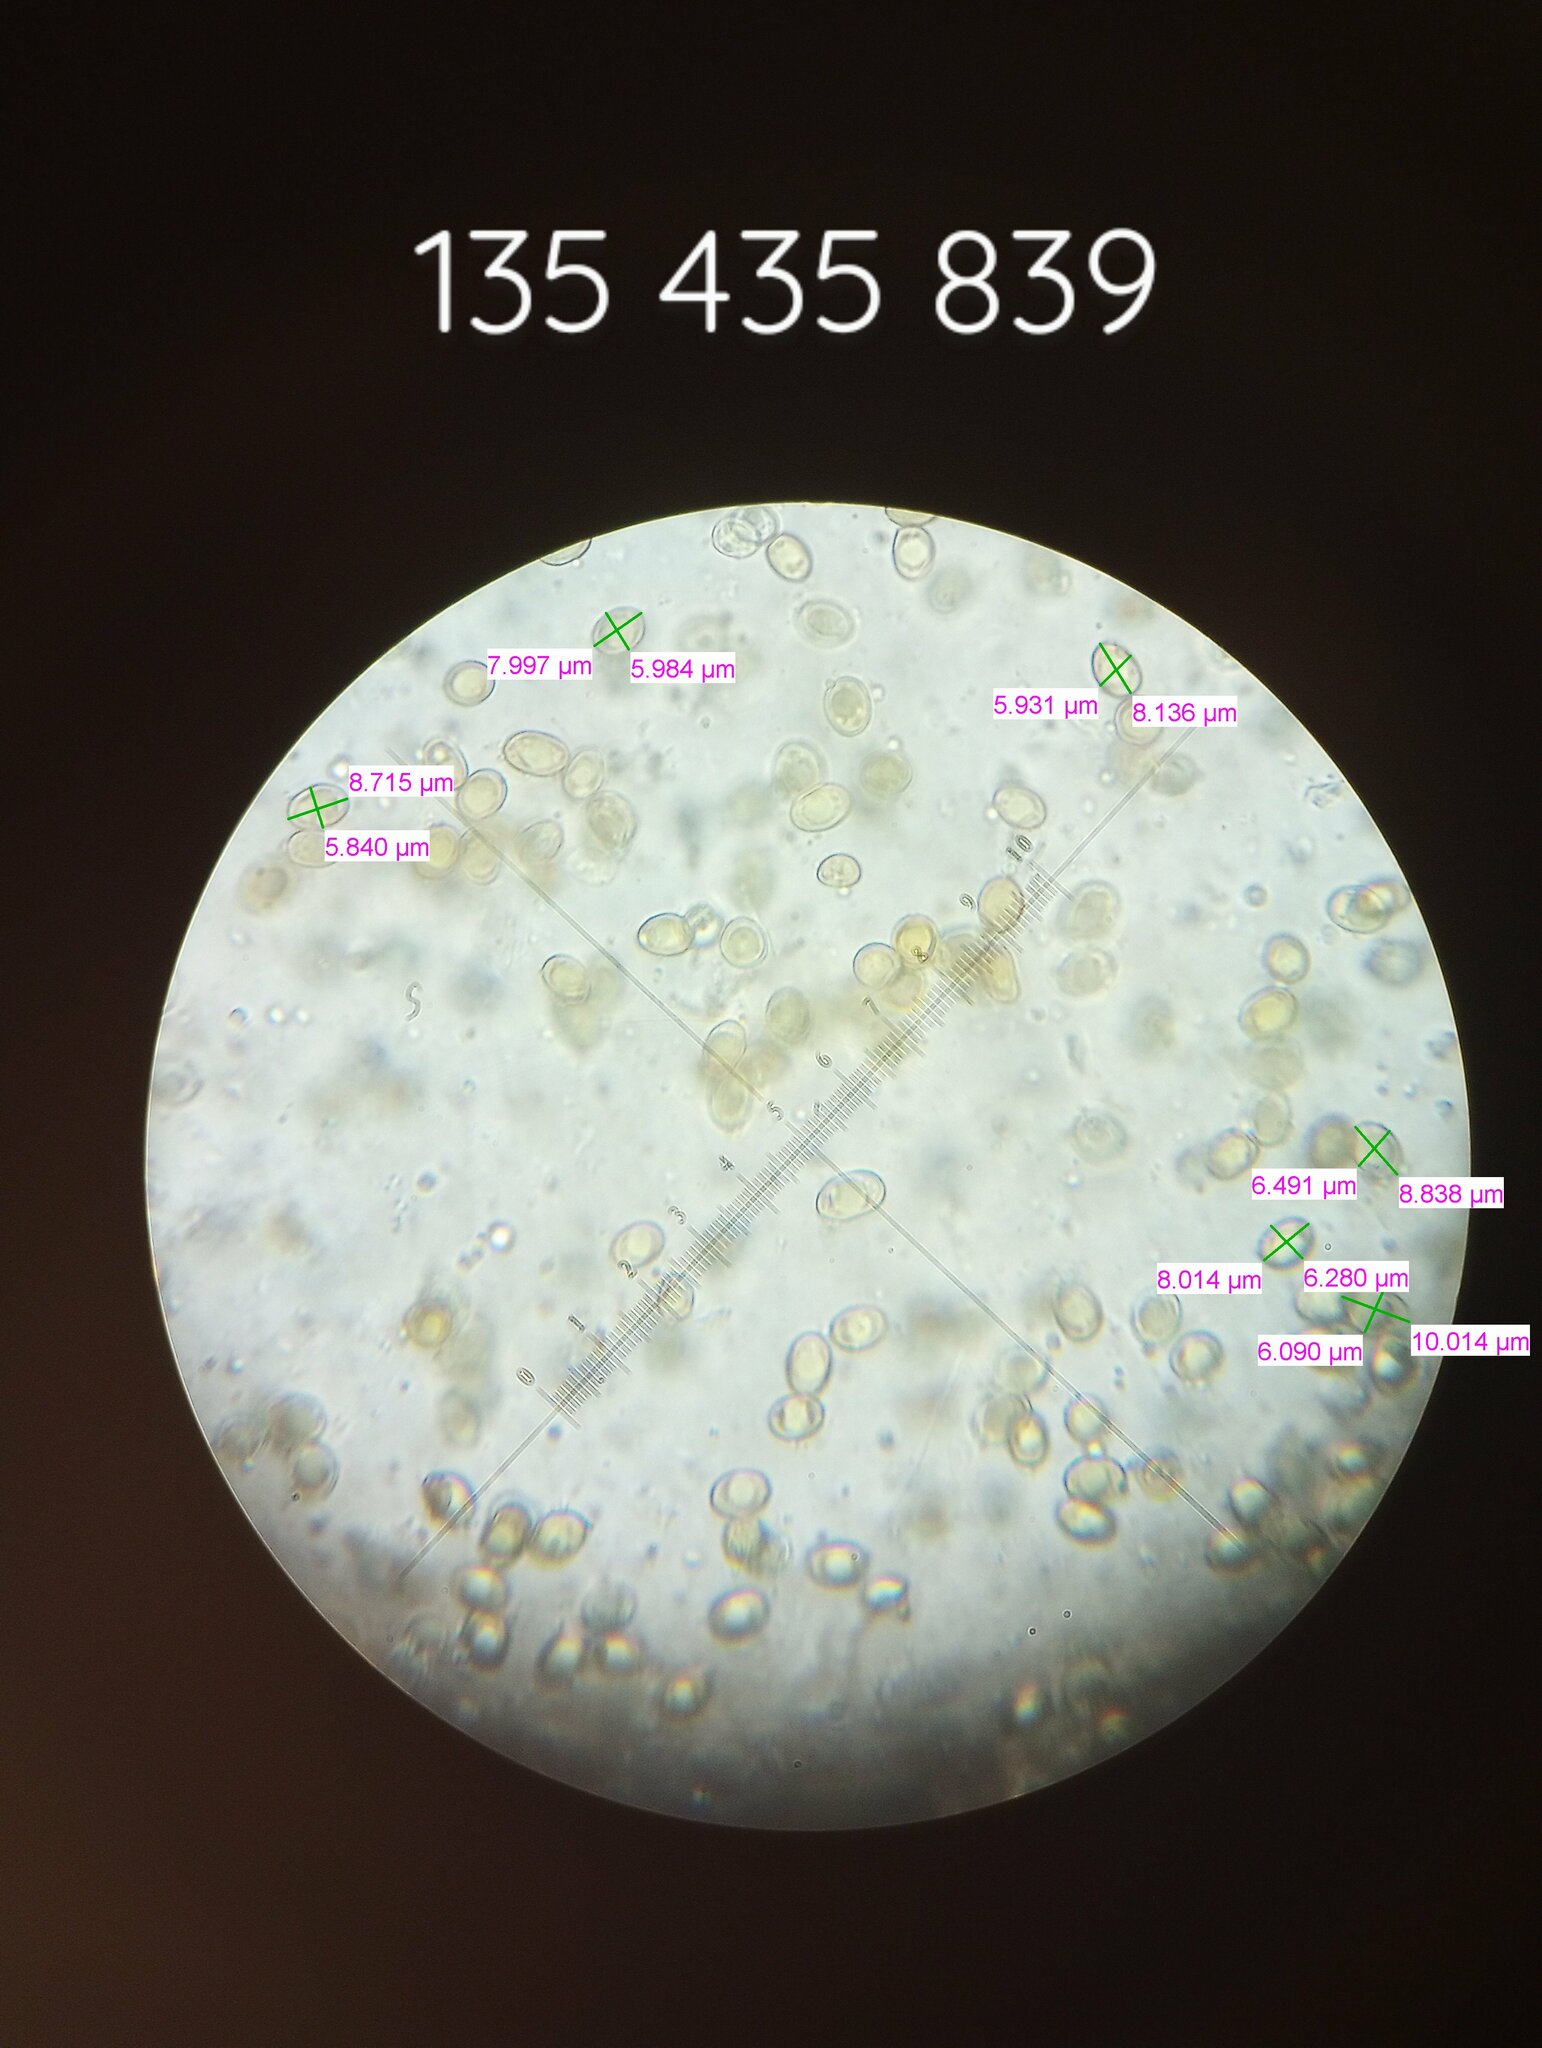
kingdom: Fungi
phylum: Basidiomycota
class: Agaricomycetes
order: Boletales
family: Boletinellaceae
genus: Boletinellus
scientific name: Boletinellus merulioides
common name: Ash tree bolete
